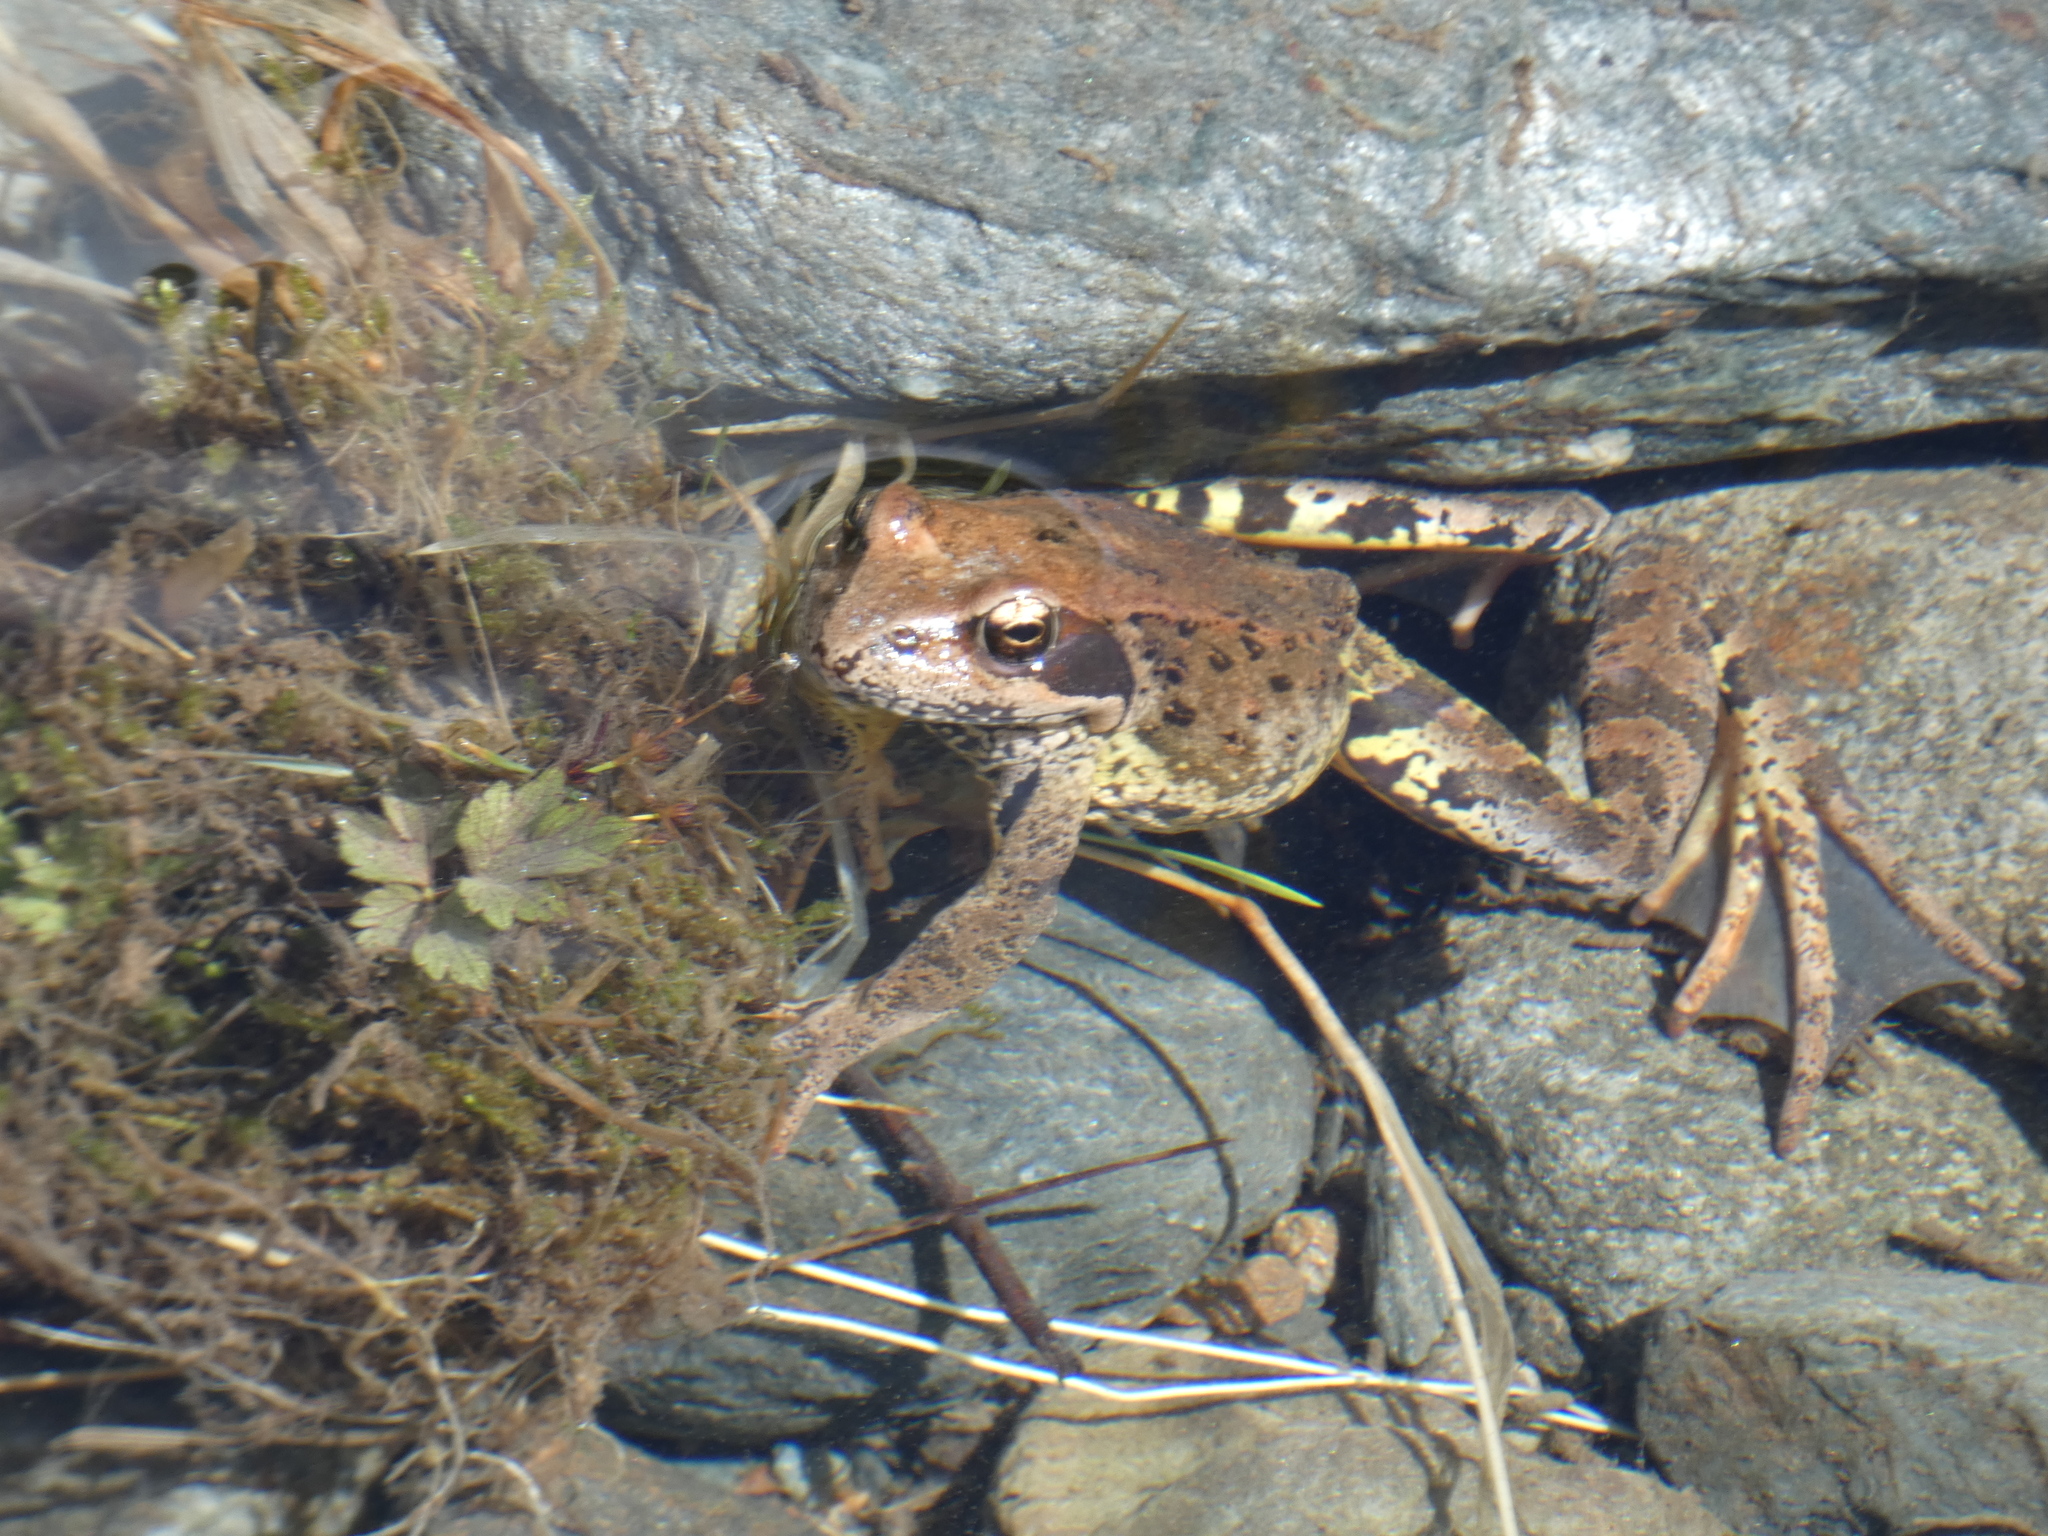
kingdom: Animalia
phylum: Chordata
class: Amphibia
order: Anura
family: Ranidae
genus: Rana
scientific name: Rana temporaria
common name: Common frog
